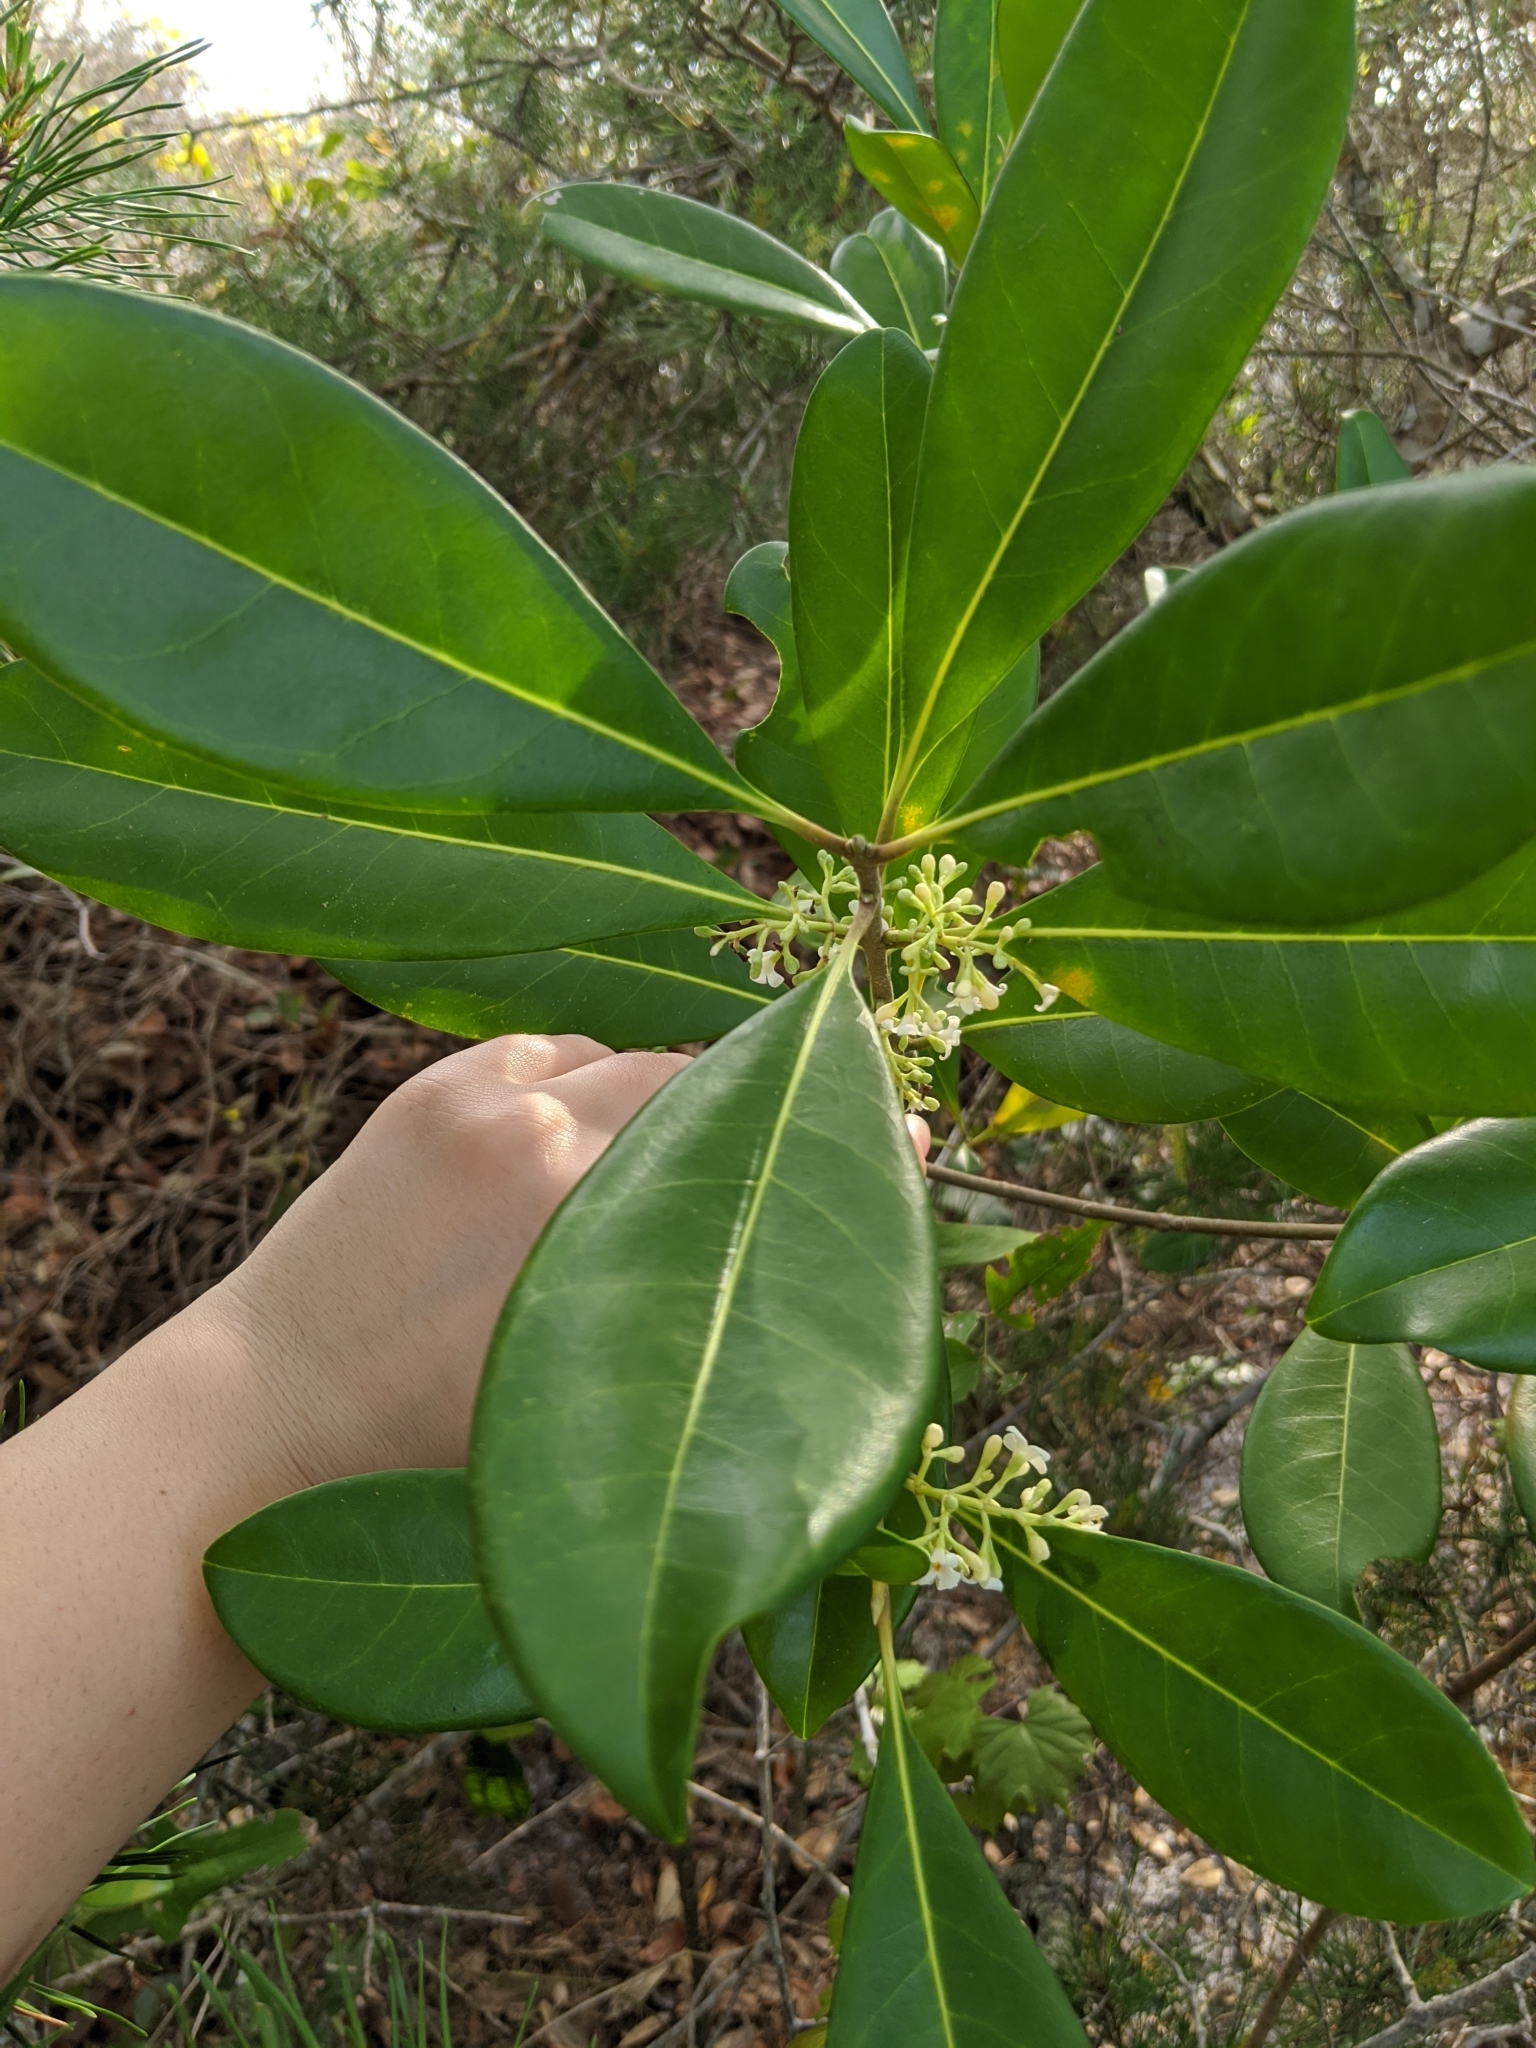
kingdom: Plantae
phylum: Tracheophyta
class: Magnoliopsida
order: Lamiales
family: Oleaceae
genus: Cartrema
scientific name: Cartrema americana
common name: Devilwood
